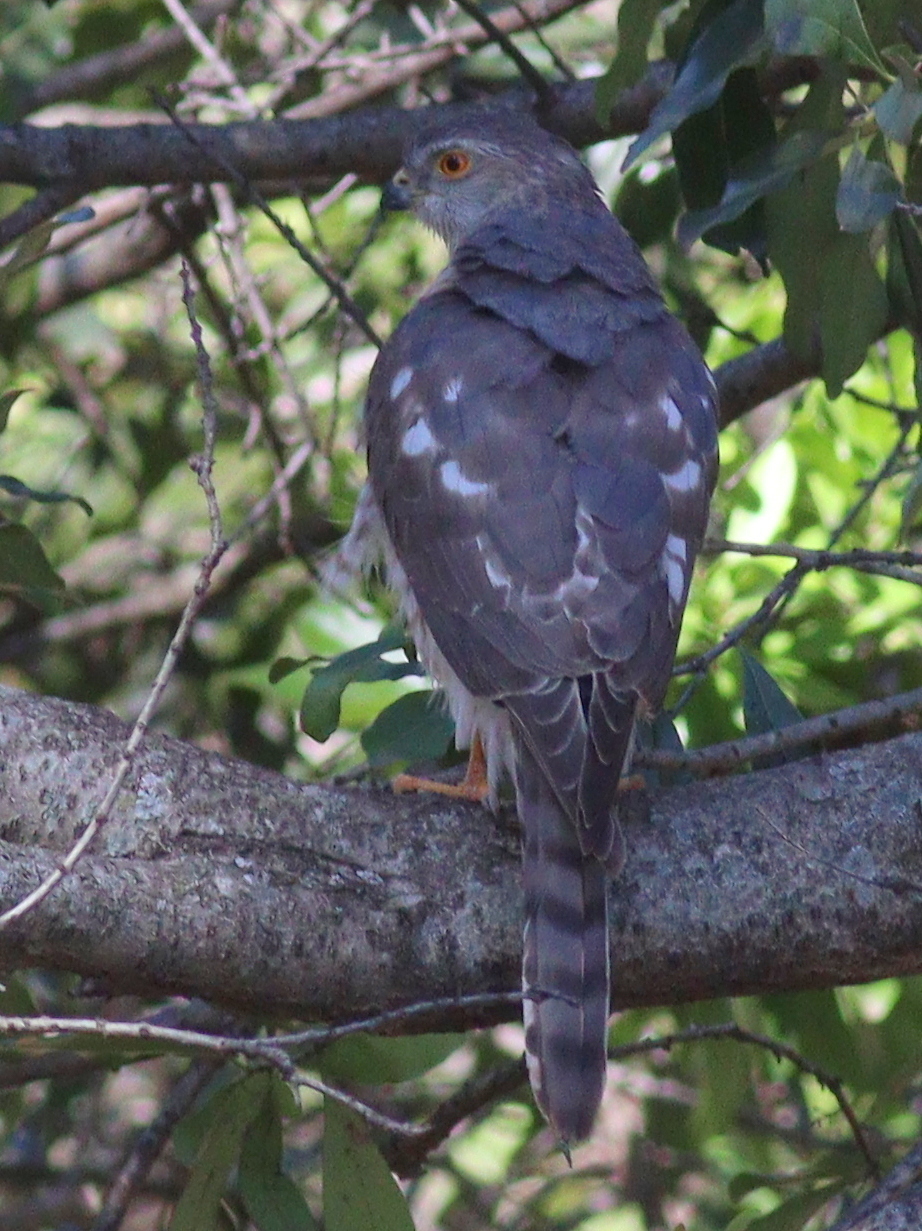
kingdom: Animalia
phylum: Chordata
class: Aves
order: Accipitriformes
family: Accipitridae
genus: Accipiter
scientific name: Accipiter badius
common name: Shikra
